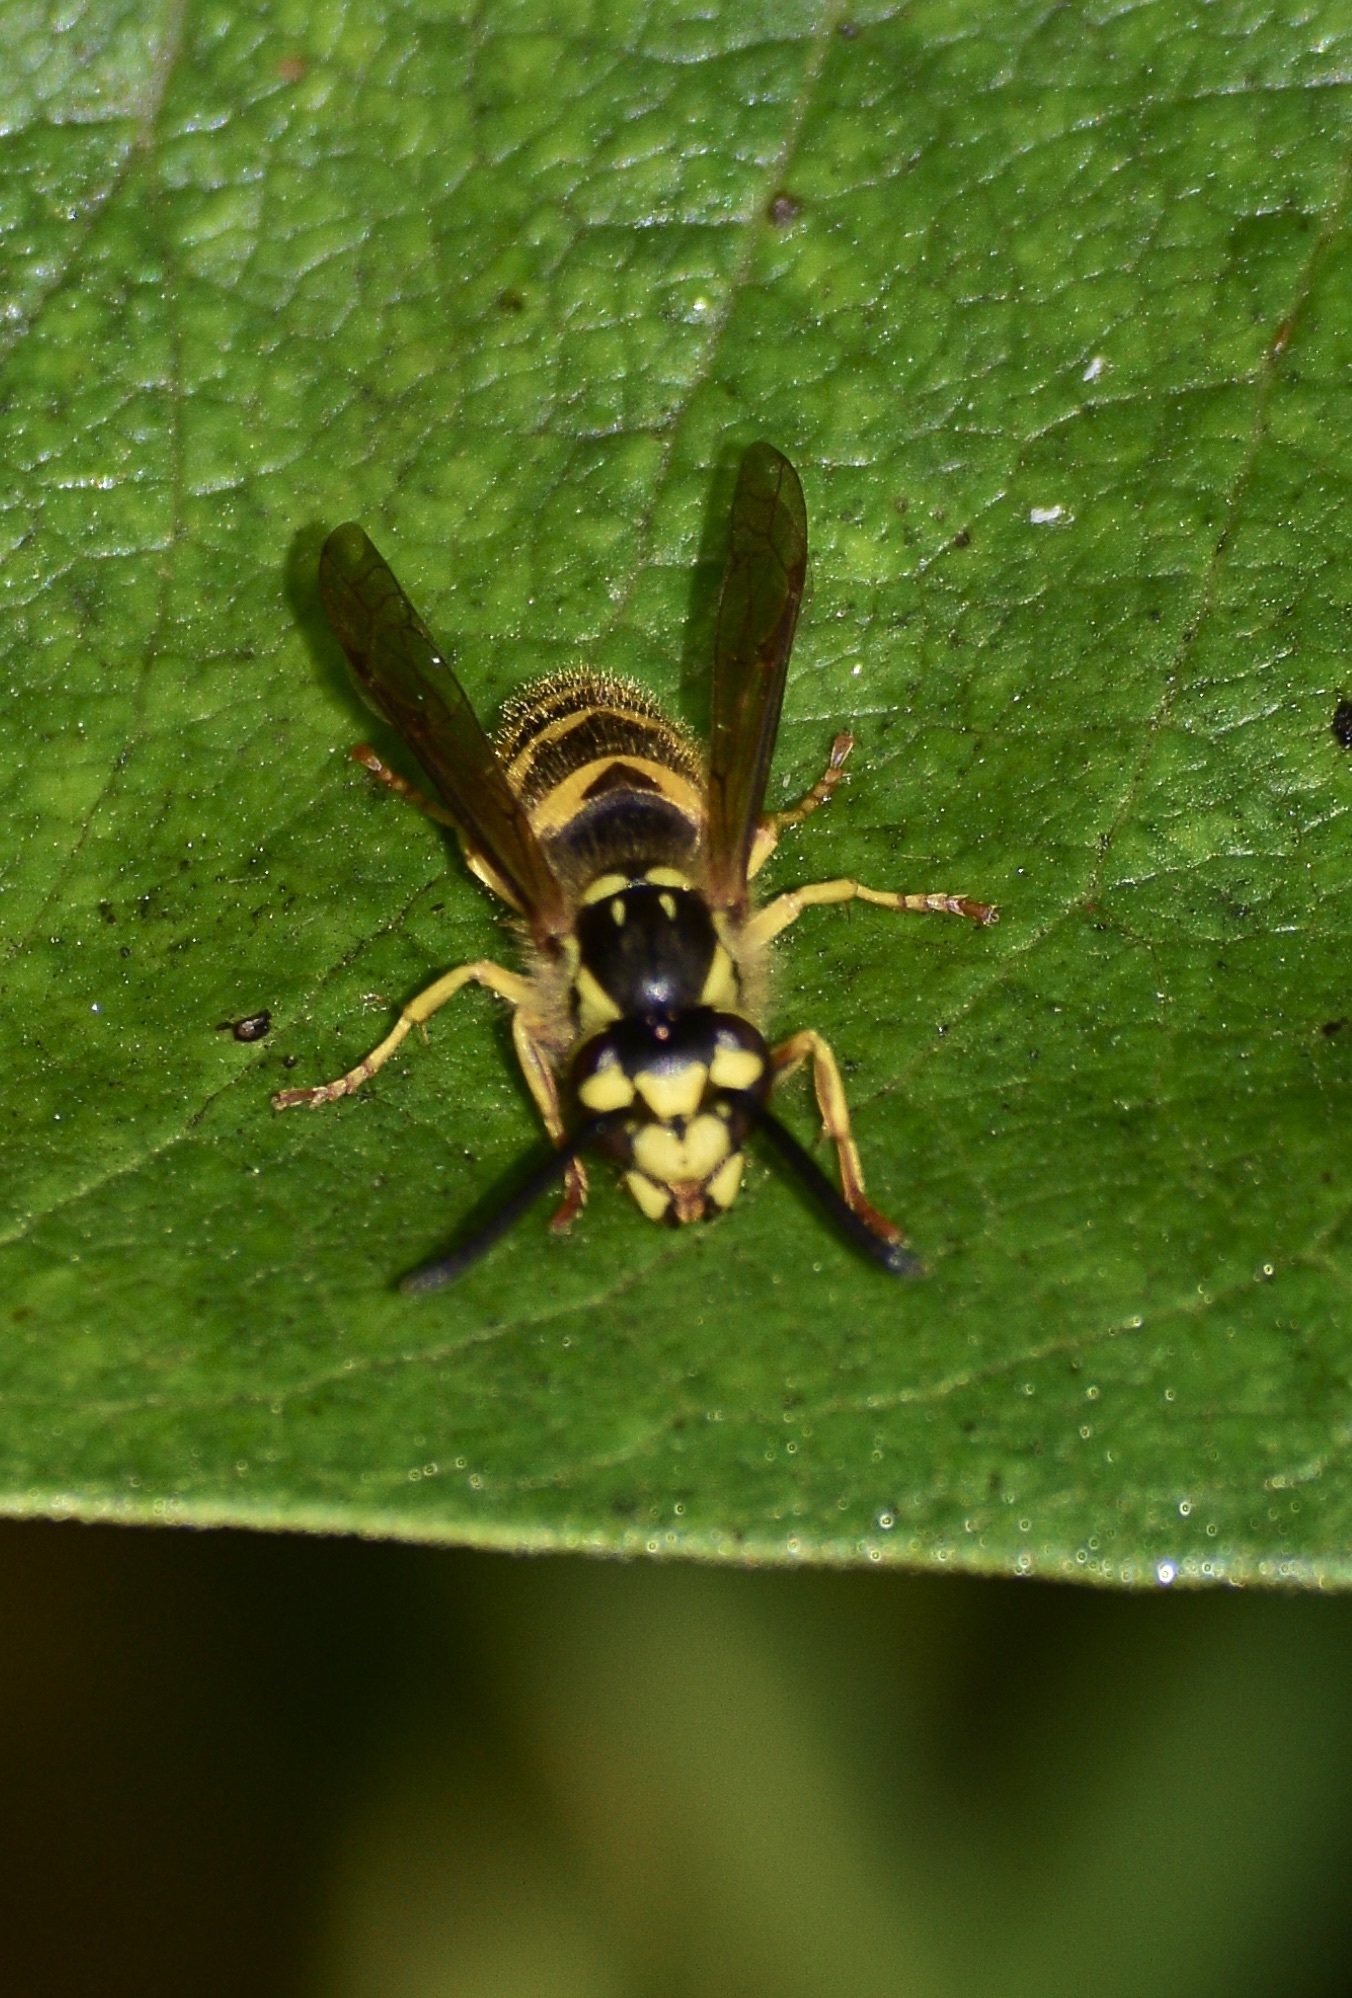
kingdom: Animalia
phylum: Arthropoda
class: Insecta
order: Hymenoptera
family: Vespidae
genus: Vespula
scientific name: Vespula flavopilosa
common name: Downy yellowjacket
